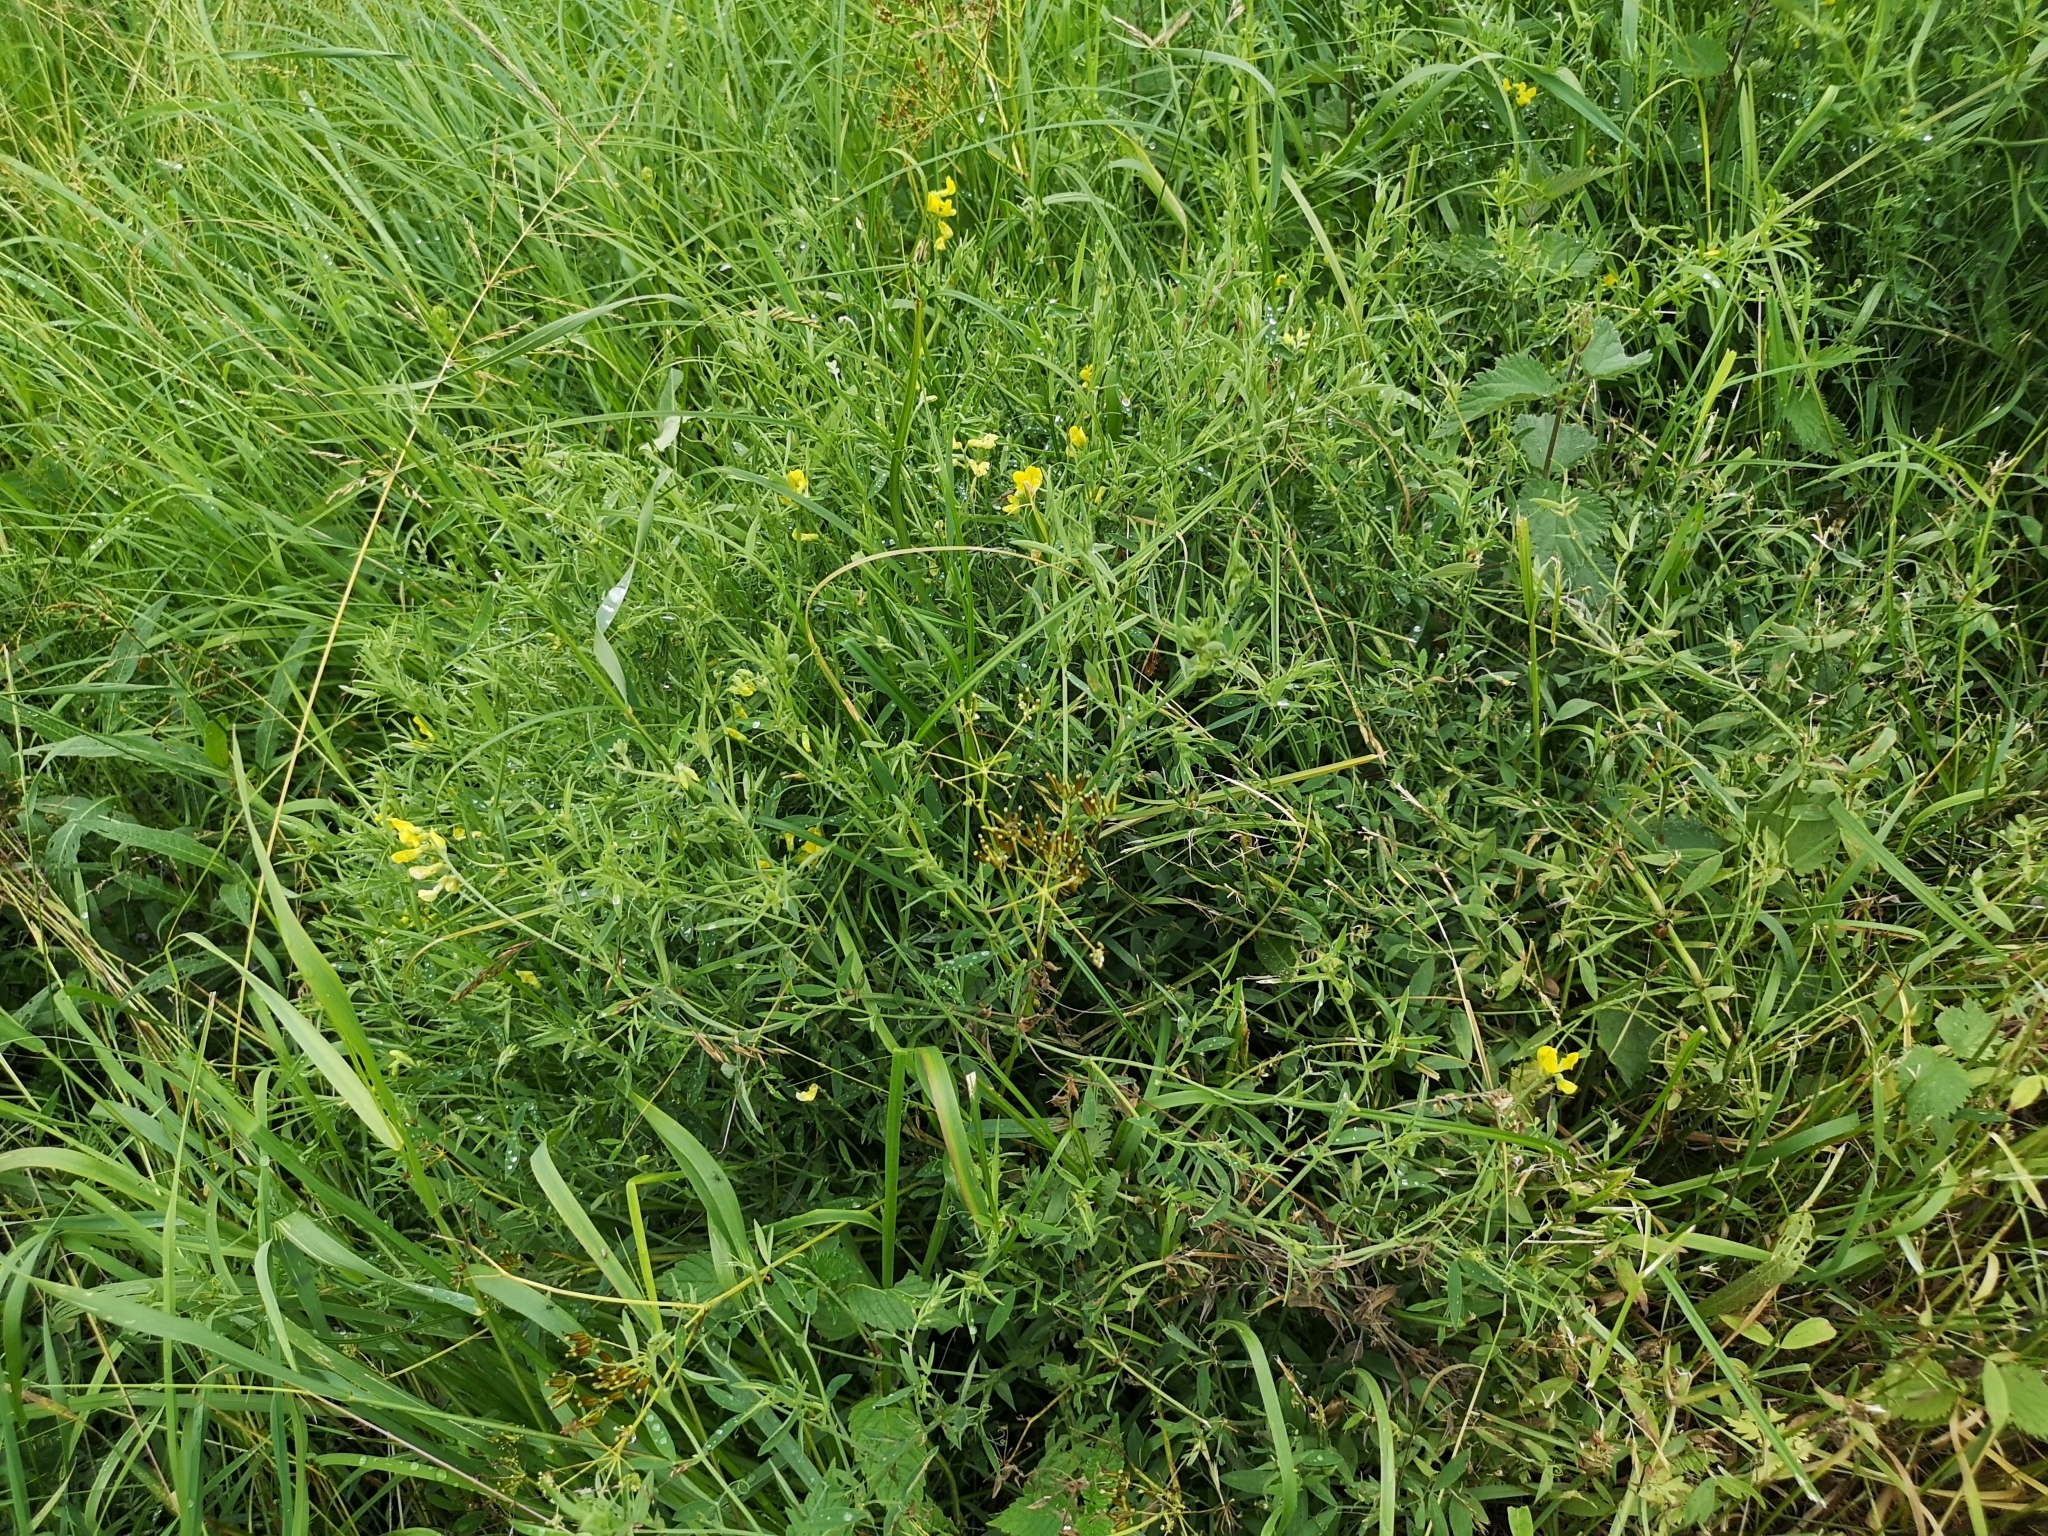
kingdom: Plantae
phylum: Tracheophyta
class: Magnoliopsida
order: Fabales
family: Fabaceae
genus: Lathyrus
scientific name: Lathyrus pratensis
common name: Meadow vetchling
